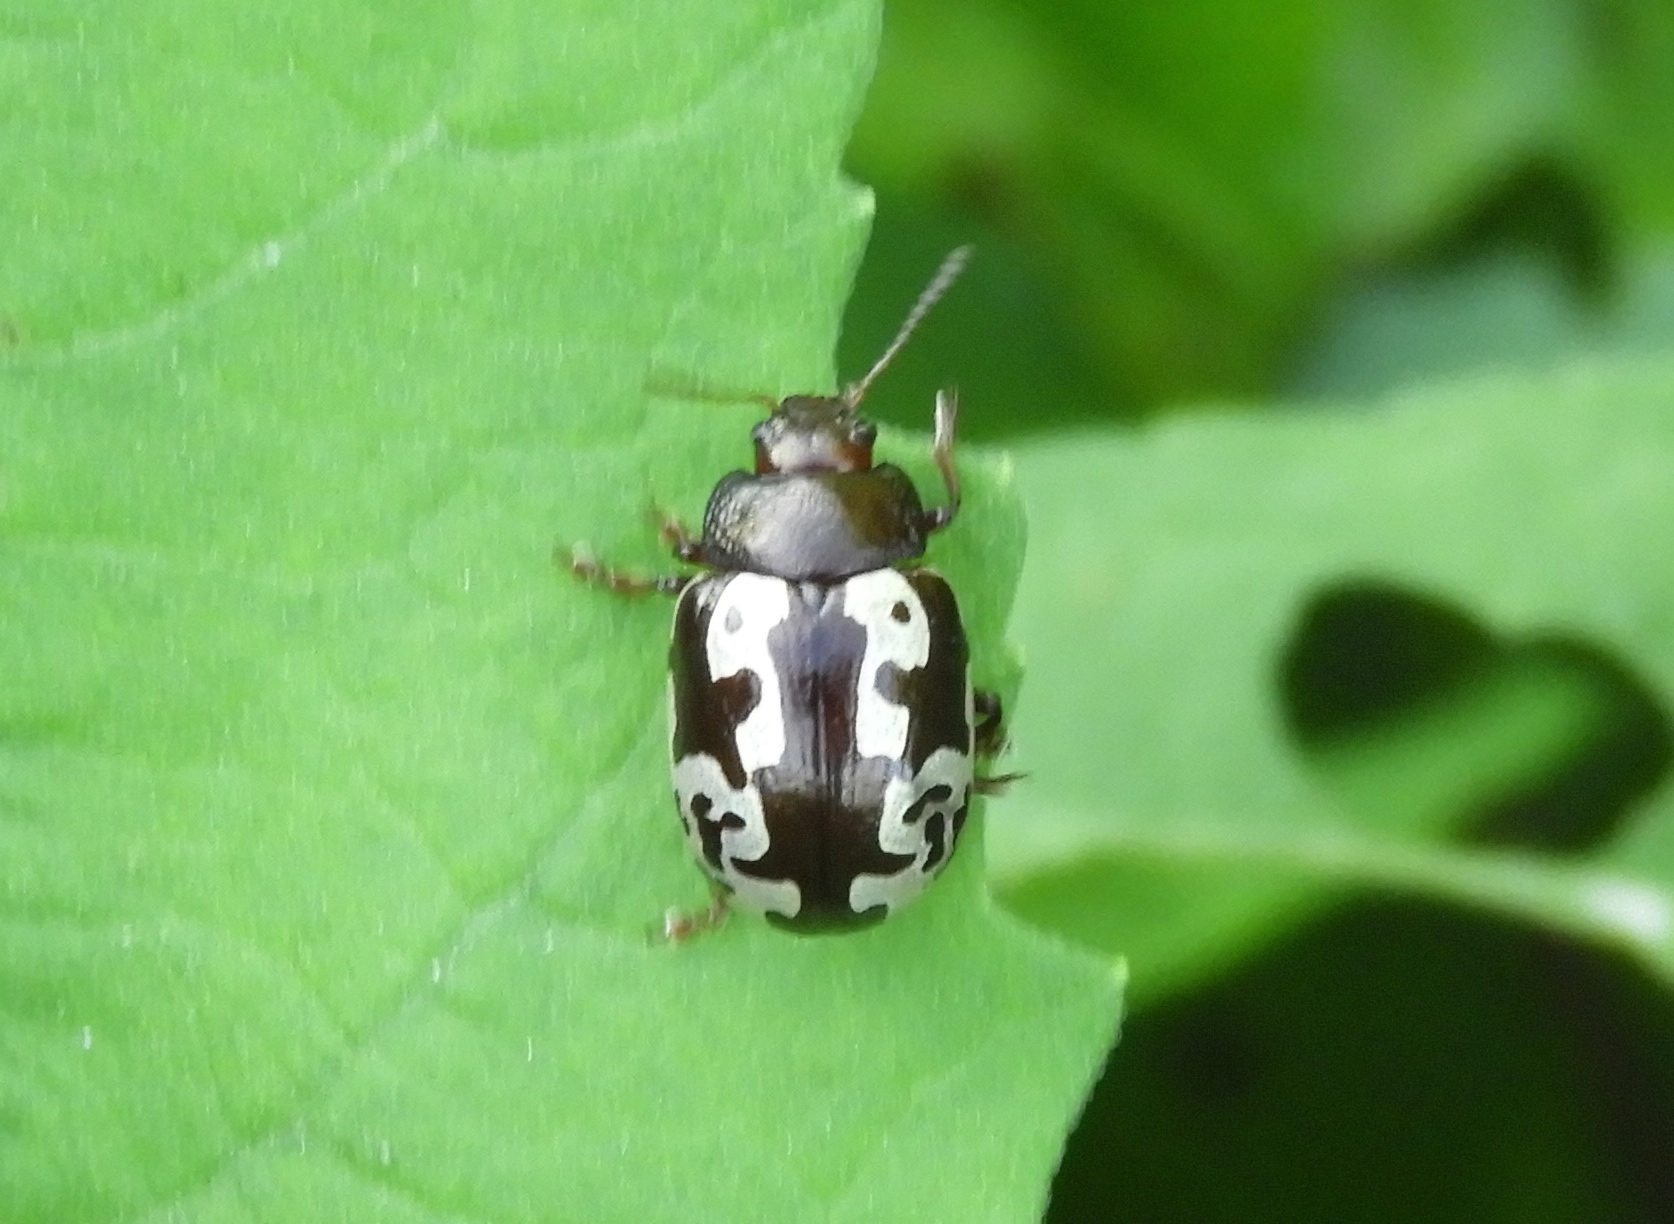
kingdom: Animalia
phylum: Arthropoda
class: Insecta
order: Coleoptera
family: Chrysomelidae
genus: Calligrapha
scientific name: Calligrapha intermedia
